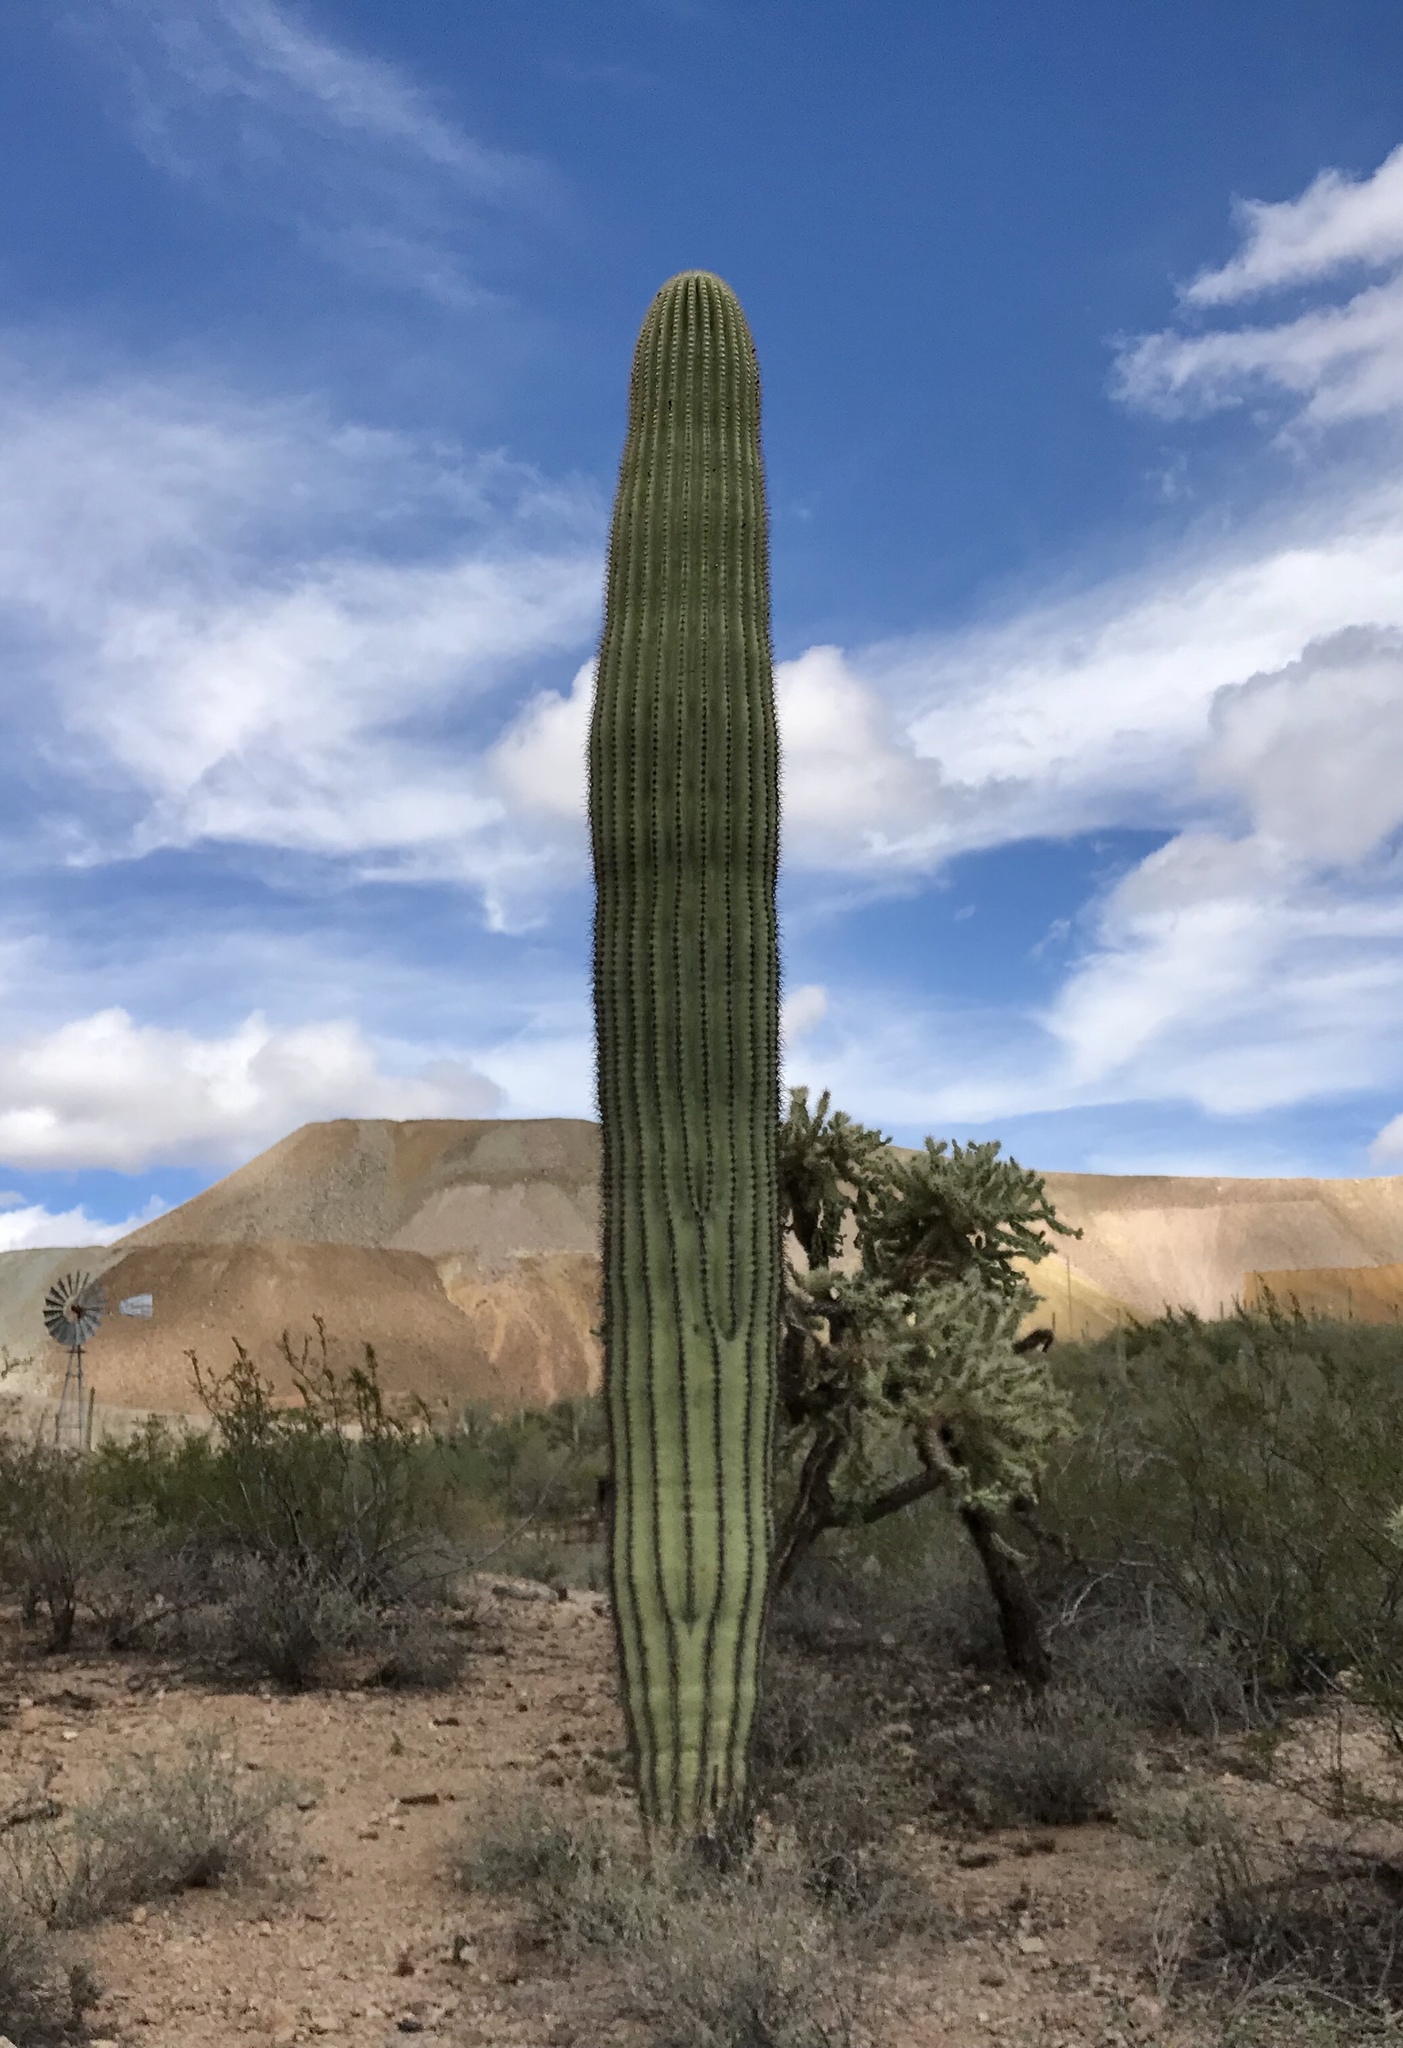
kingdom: Plantae
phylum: Tracheophyta
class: Magnoliopsida
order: Caryophyllales
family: Cactaceae
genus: Carnegiea
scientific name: Carnegiea gigantea
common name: Saguaro
